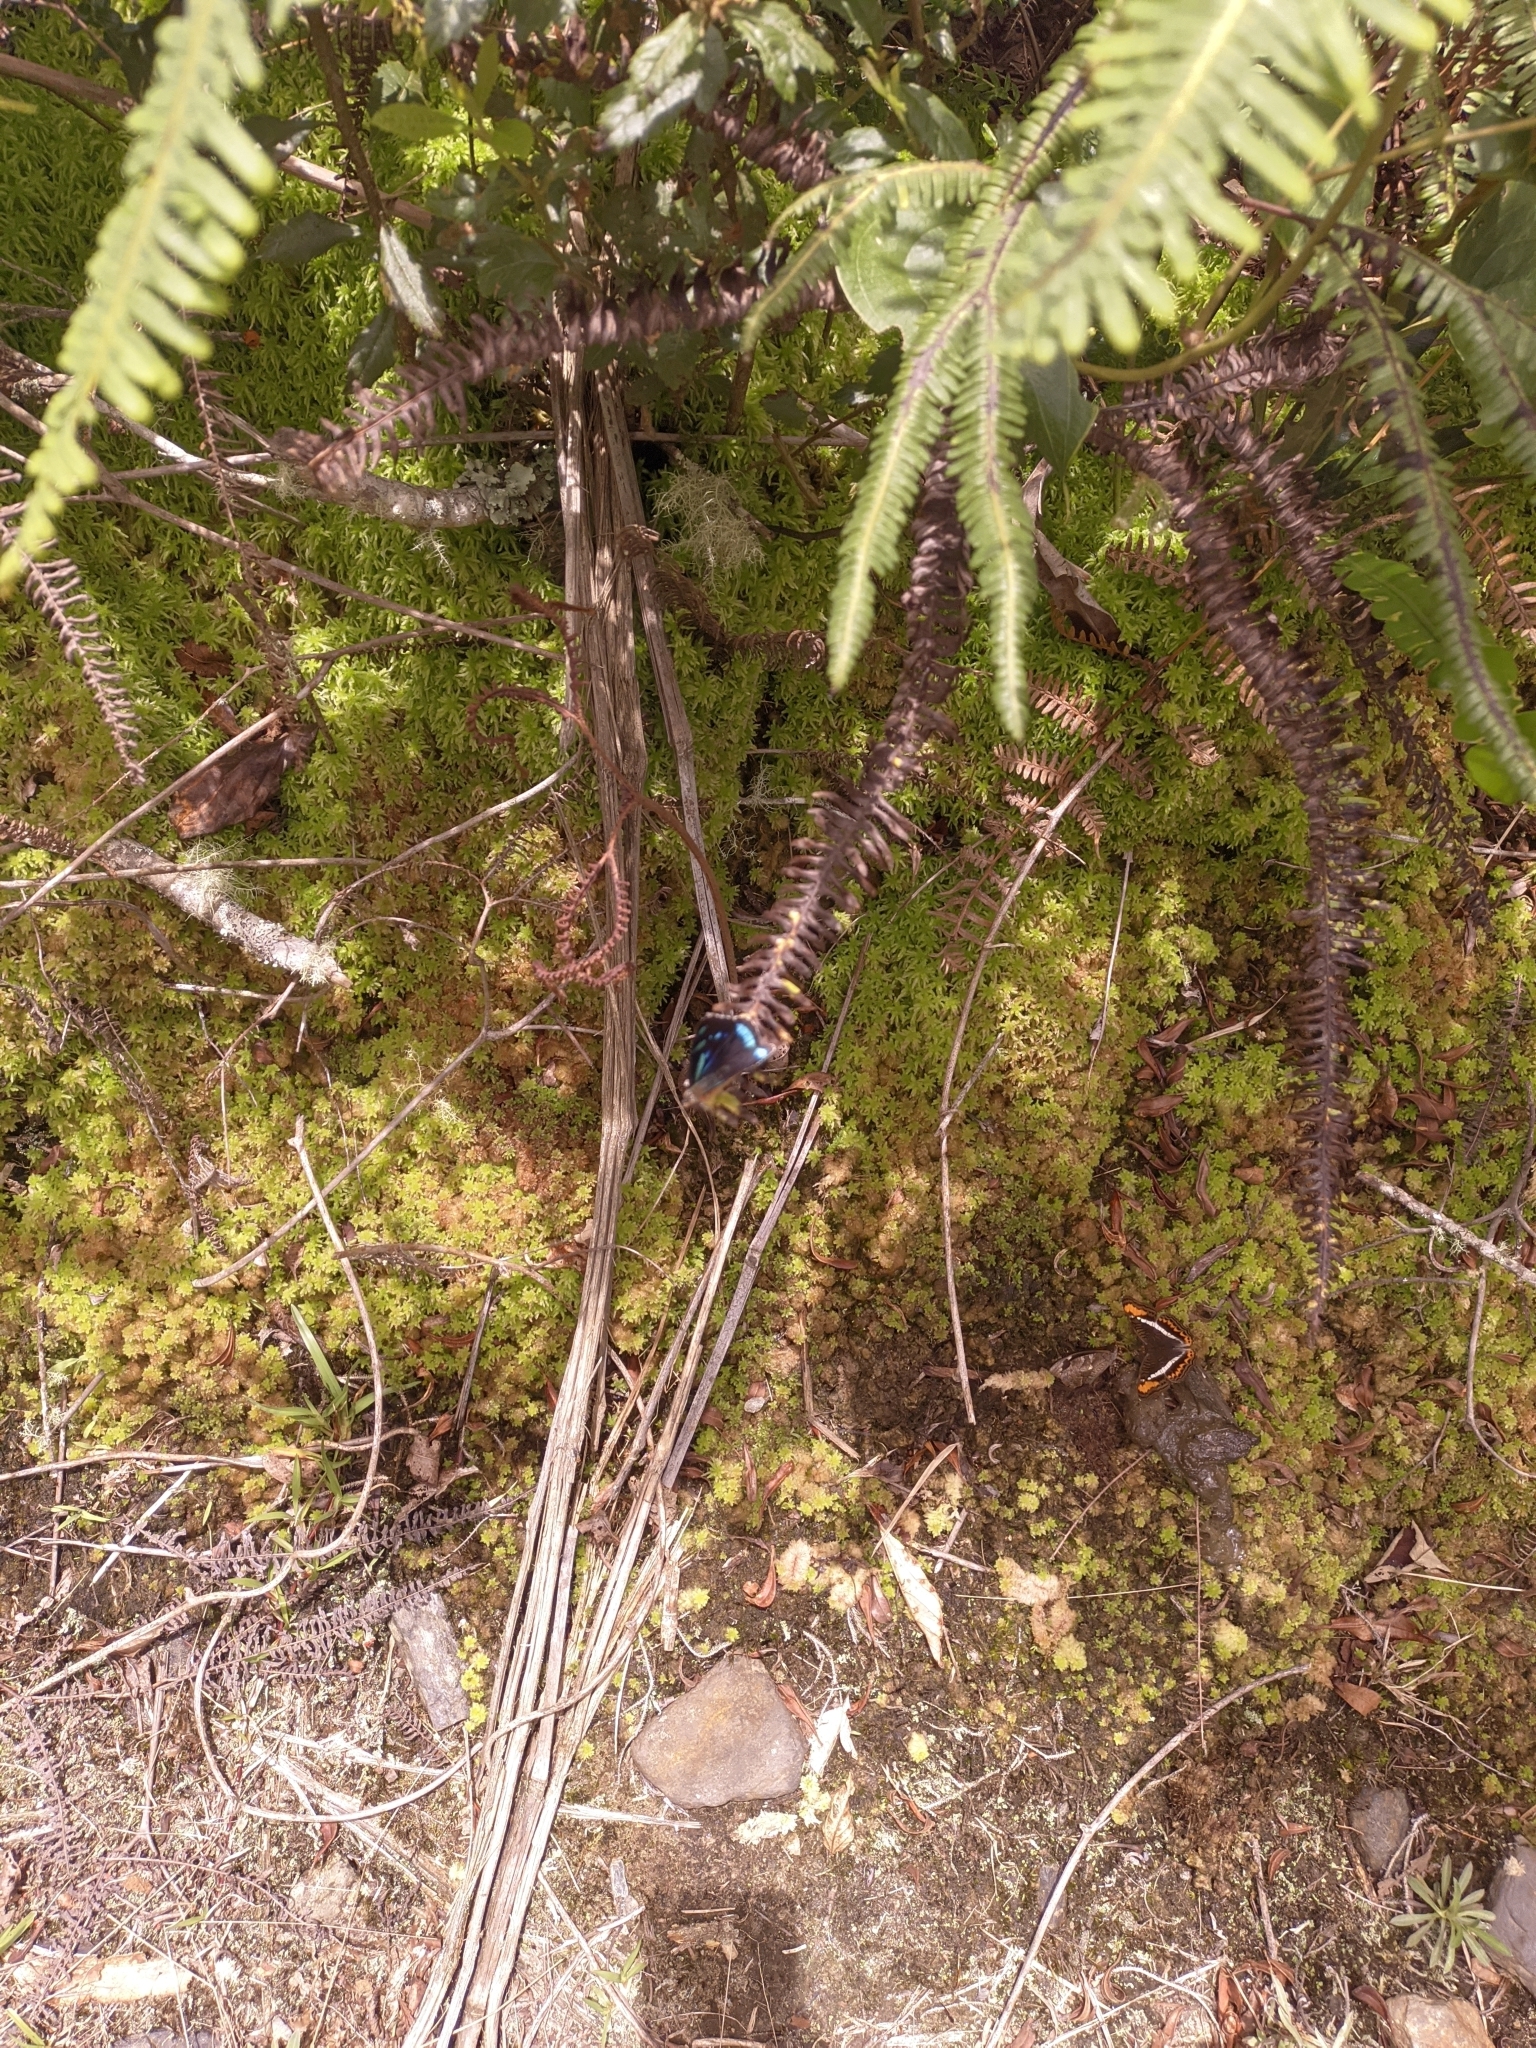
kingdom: Animalia
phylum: Arthropoda
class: Insecta
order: Lepidoptera
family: Nymphalidae
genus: Perisama
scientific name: Perisama nevada
